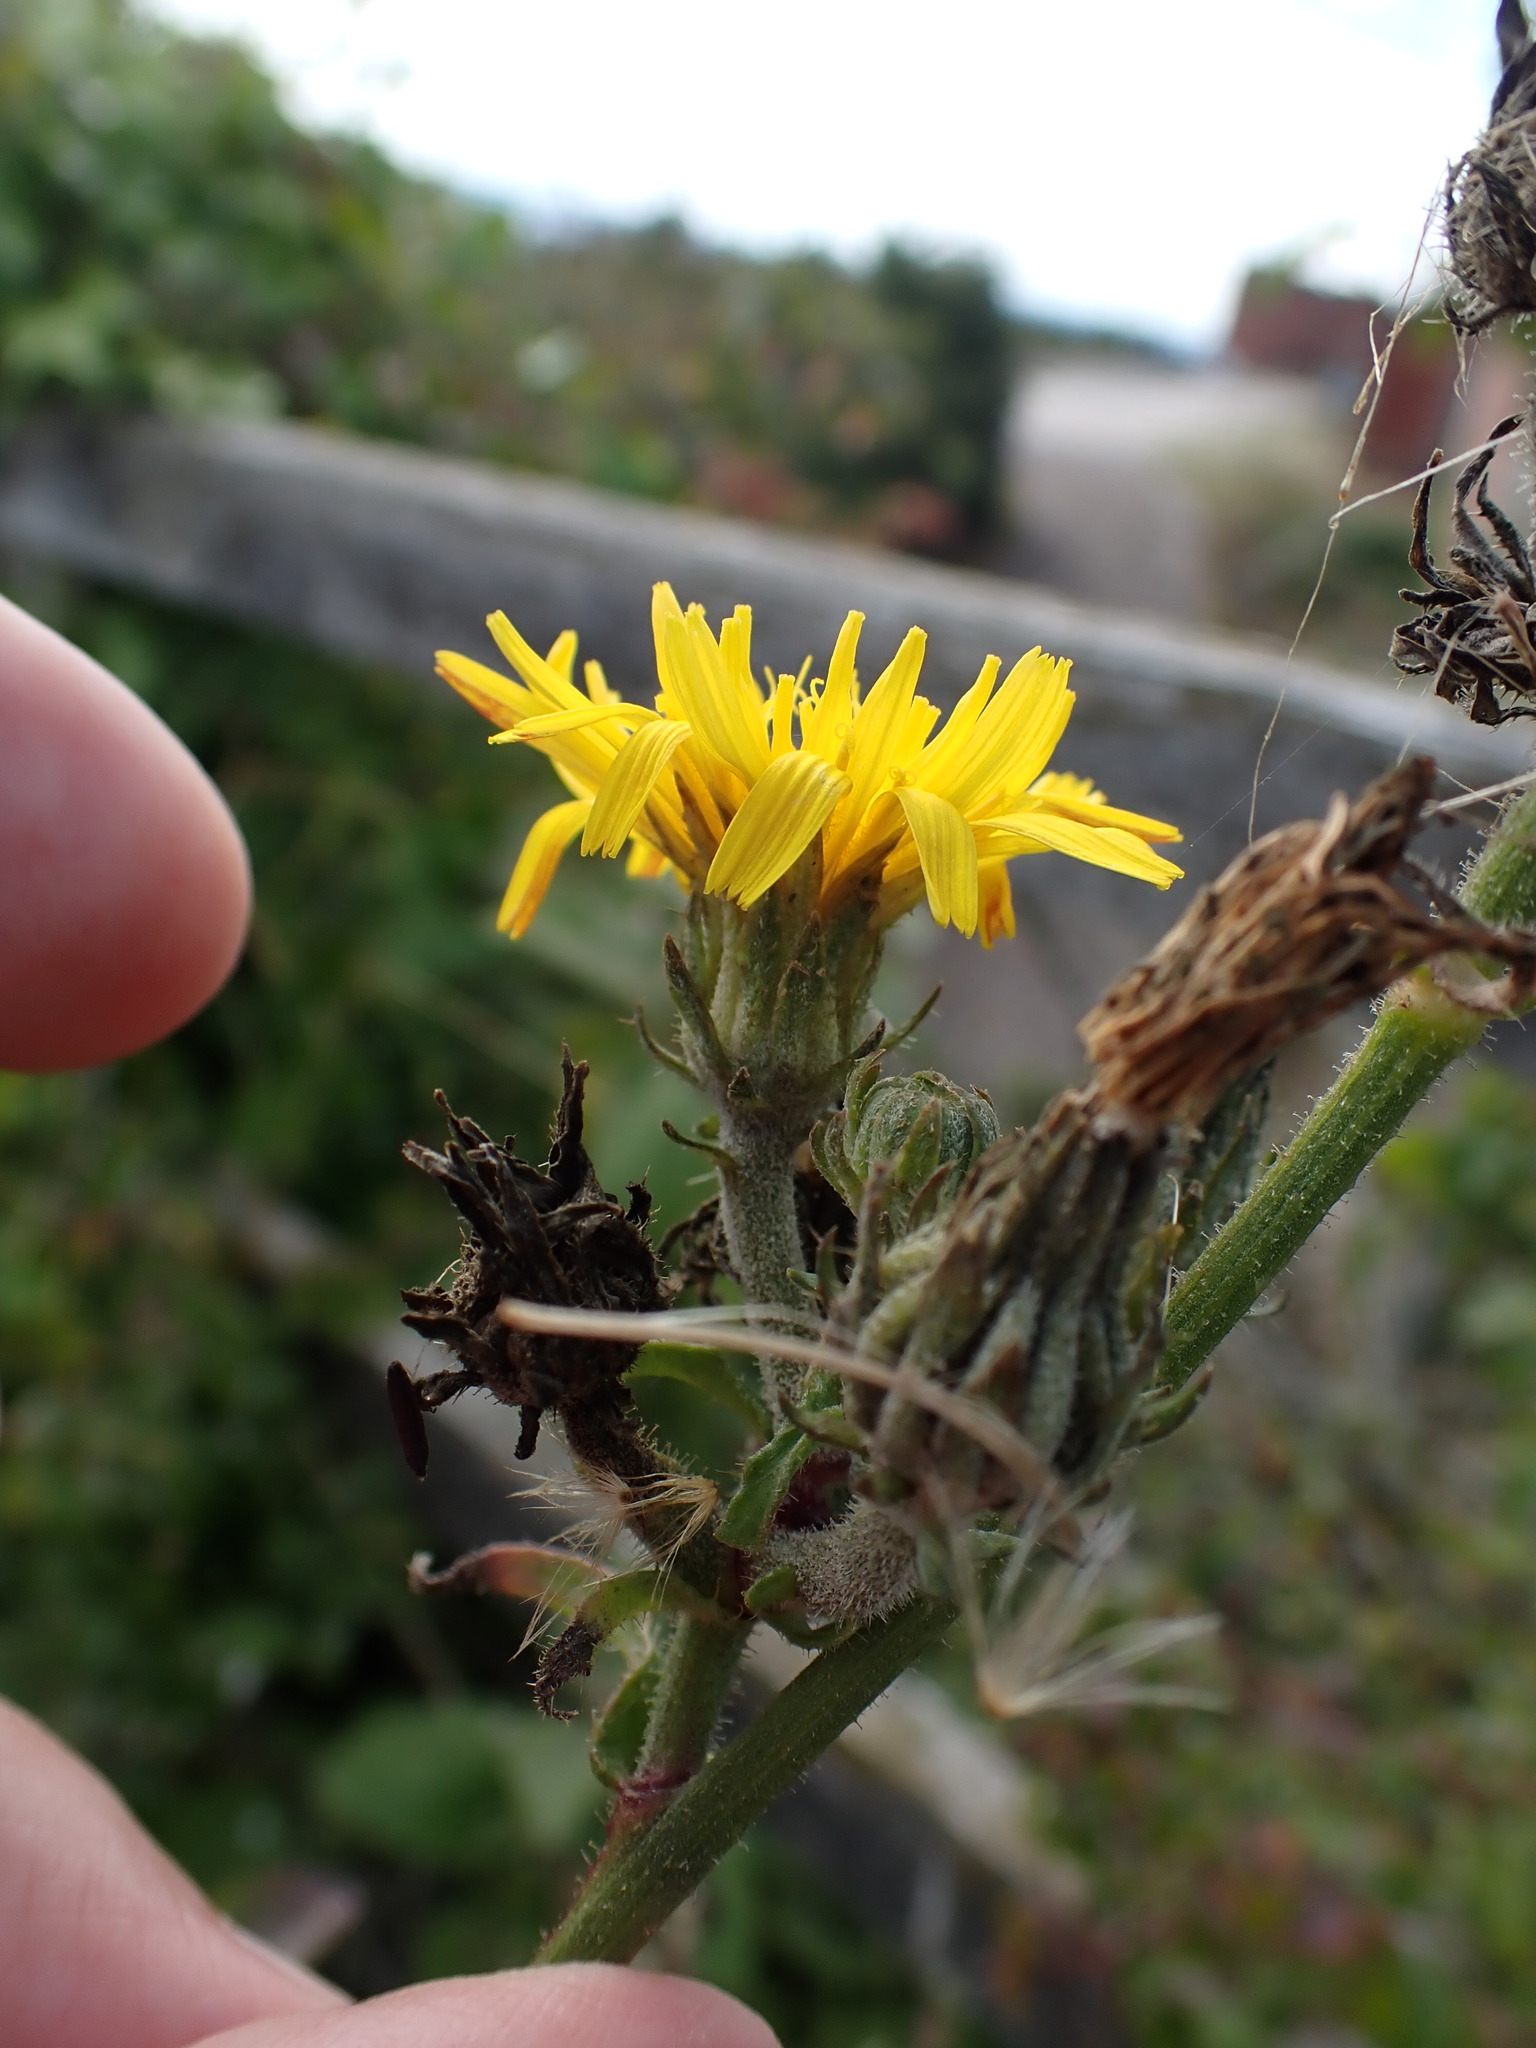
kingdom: Plantae
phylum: Tracheophyta
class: Magnoliopsida
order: Asterales
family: Asteraceae
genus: Picris
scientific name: Picris hieracioides
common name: Hawkweed oxtongue
